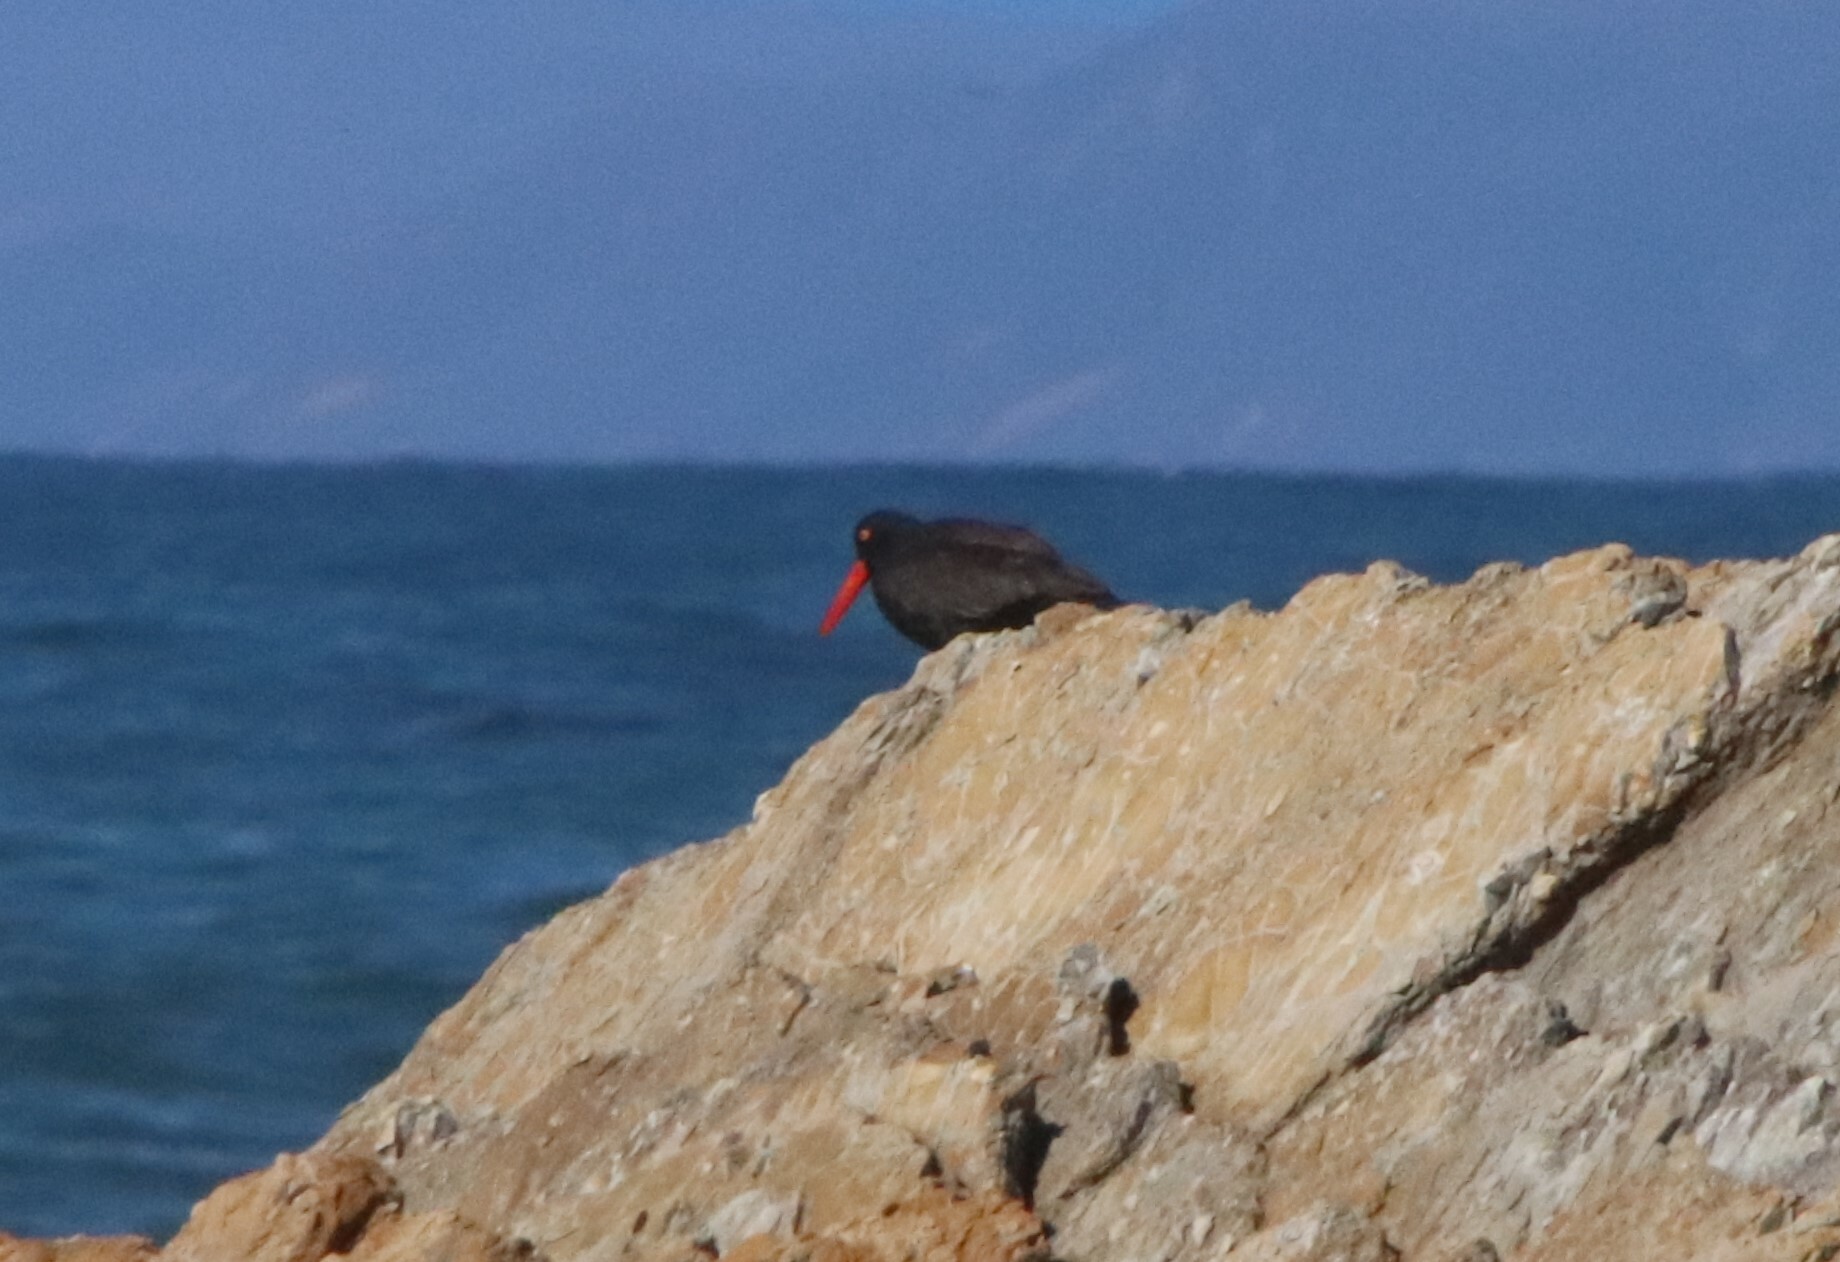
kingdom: Animalia
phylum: Chordata
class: Aves
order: Charadriiformes
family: Haematopodidae
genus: Haematopus
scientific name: Haematopus bachmani
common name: Black oystercatcher
